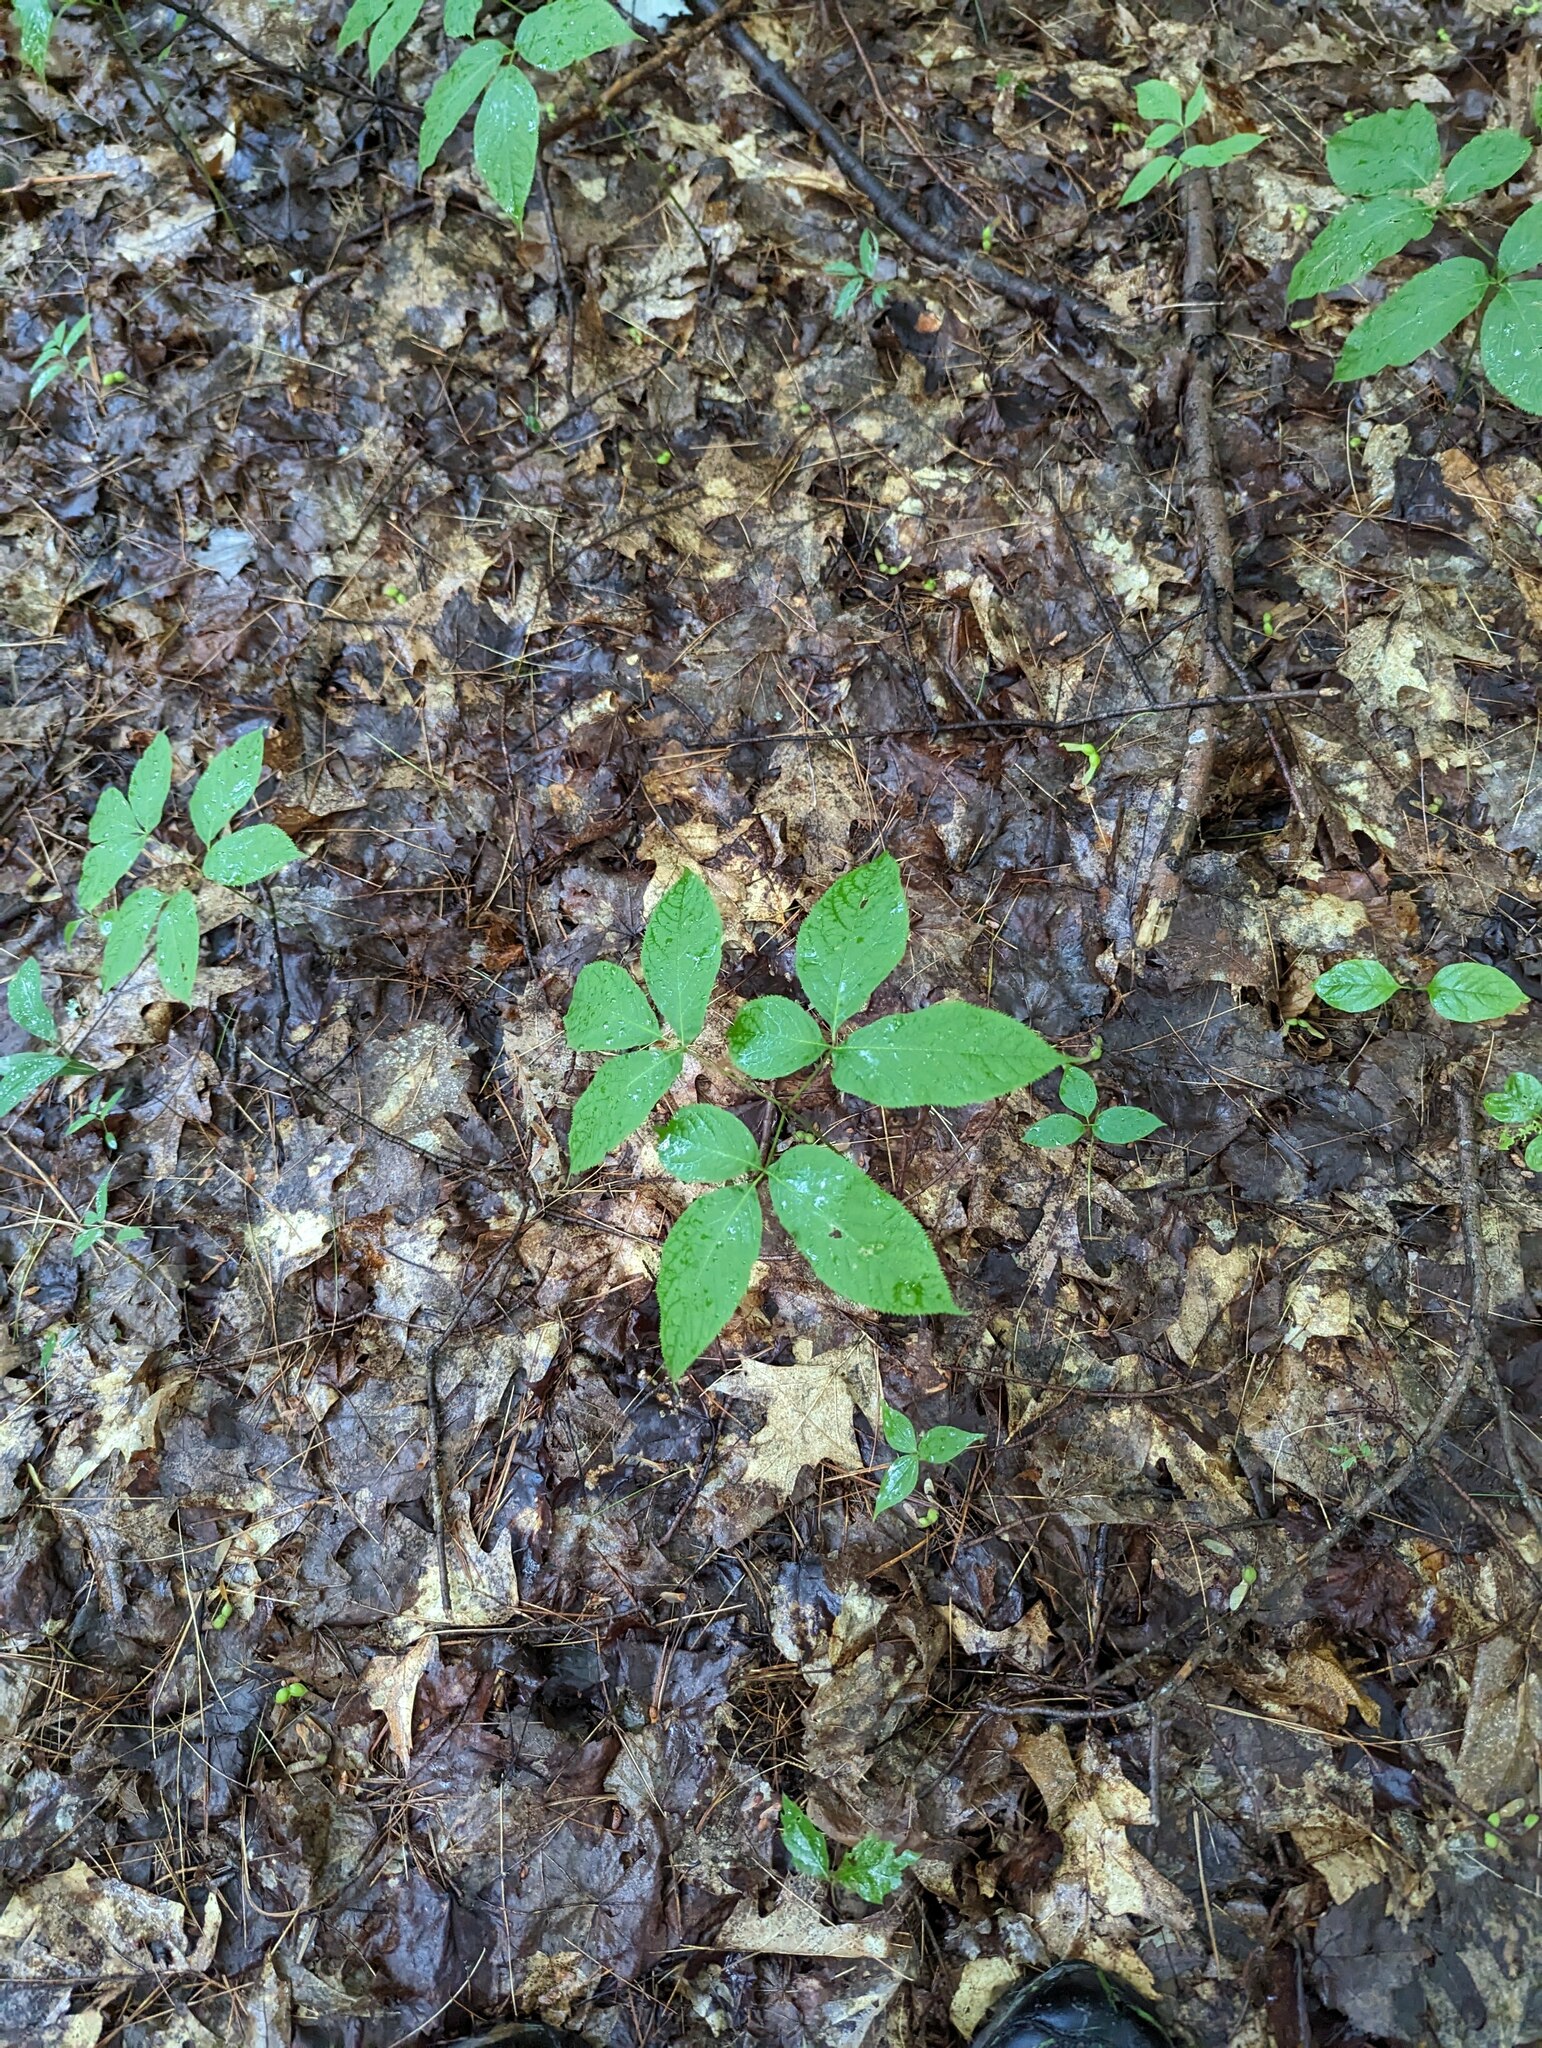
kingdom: Plantae
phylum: Tracheophyta
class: Magnoliopsida
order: Apiales
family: Araliaceae
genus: Aralia
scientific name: Aralia nudicaulis
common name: Wild sarsaparilla
